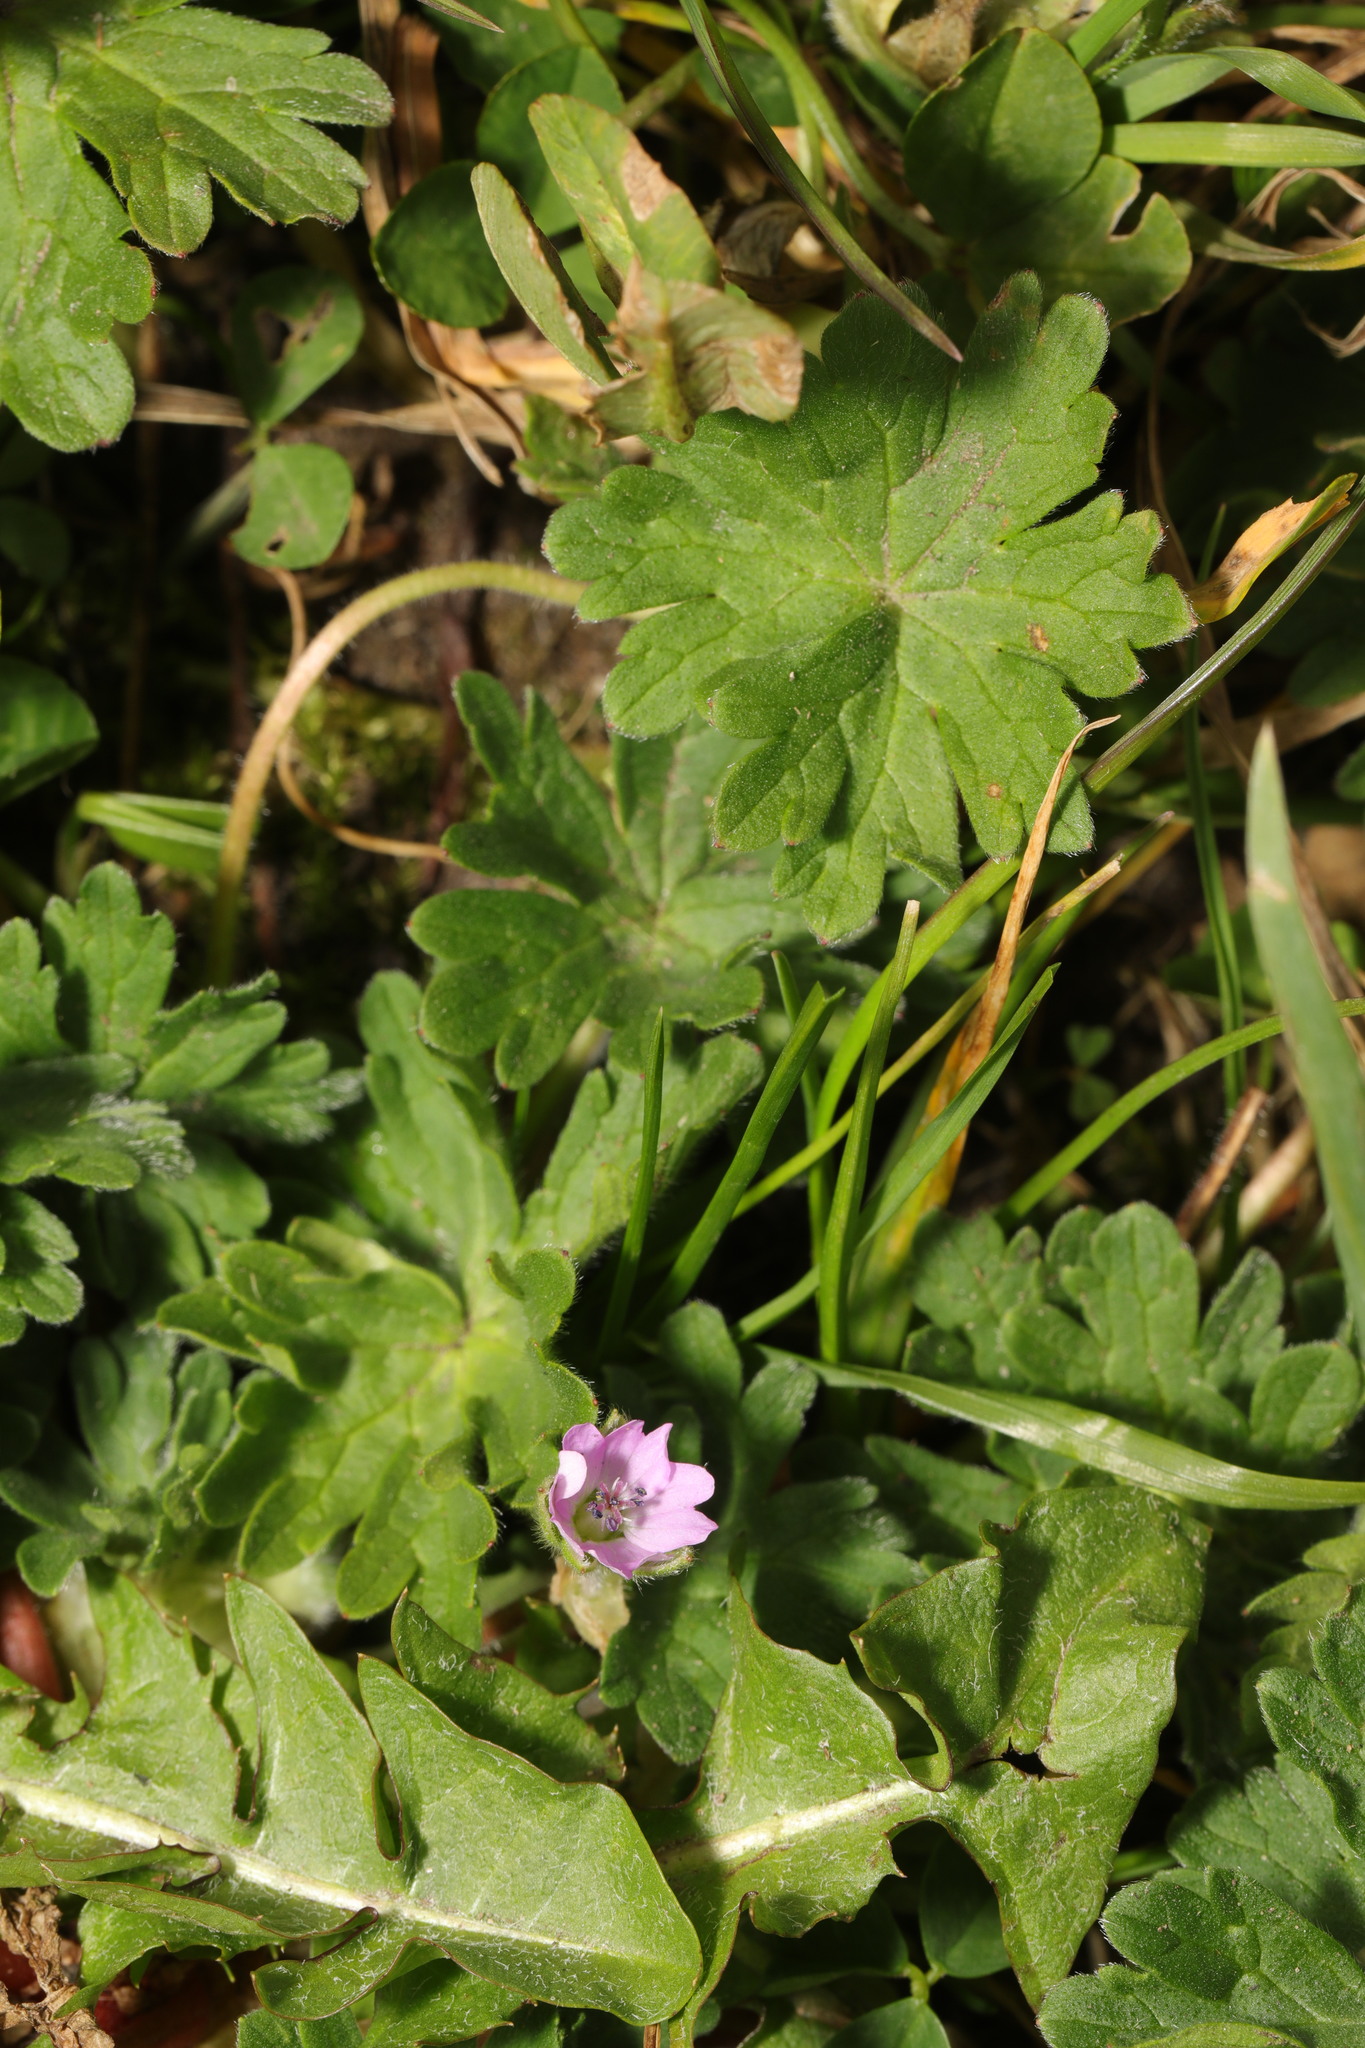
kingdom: Plantae
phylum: Tracheophyta
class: Magnoliopsida
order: Geraniales
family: Geraniaceae
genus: Geranium
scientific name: Geranium molle
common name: Dove's-foot crane's-bill
